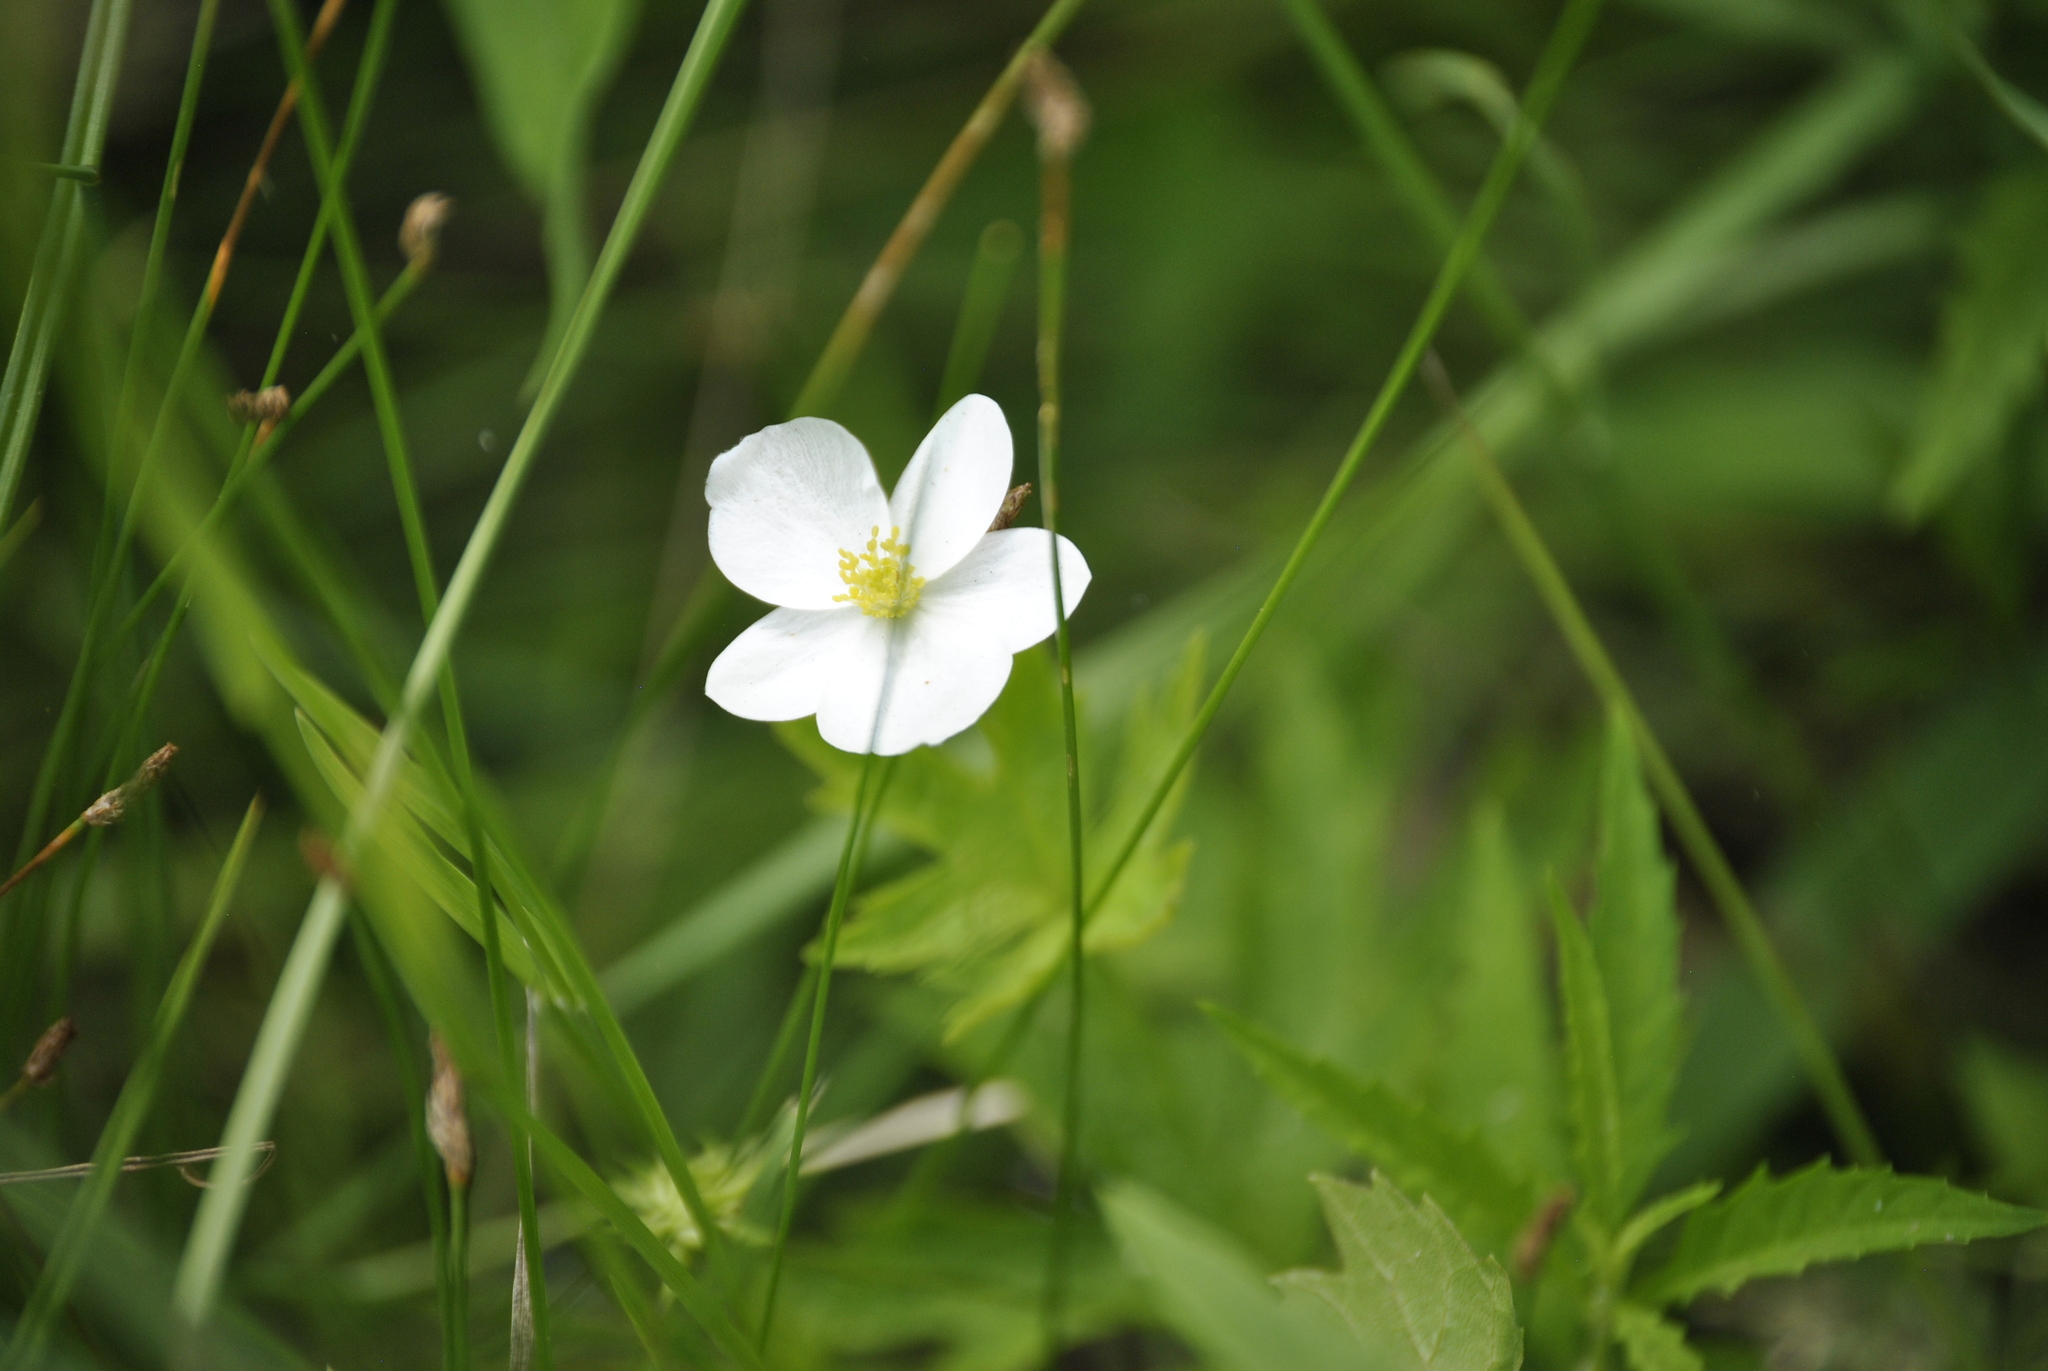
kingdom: Plantae
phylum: Tracheophyta
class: Magnoliopsida
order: Ranunculales
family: Ranunculaceae
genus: Anemonastrum
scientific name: Anemonastrum canadense
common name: Canada anemone
